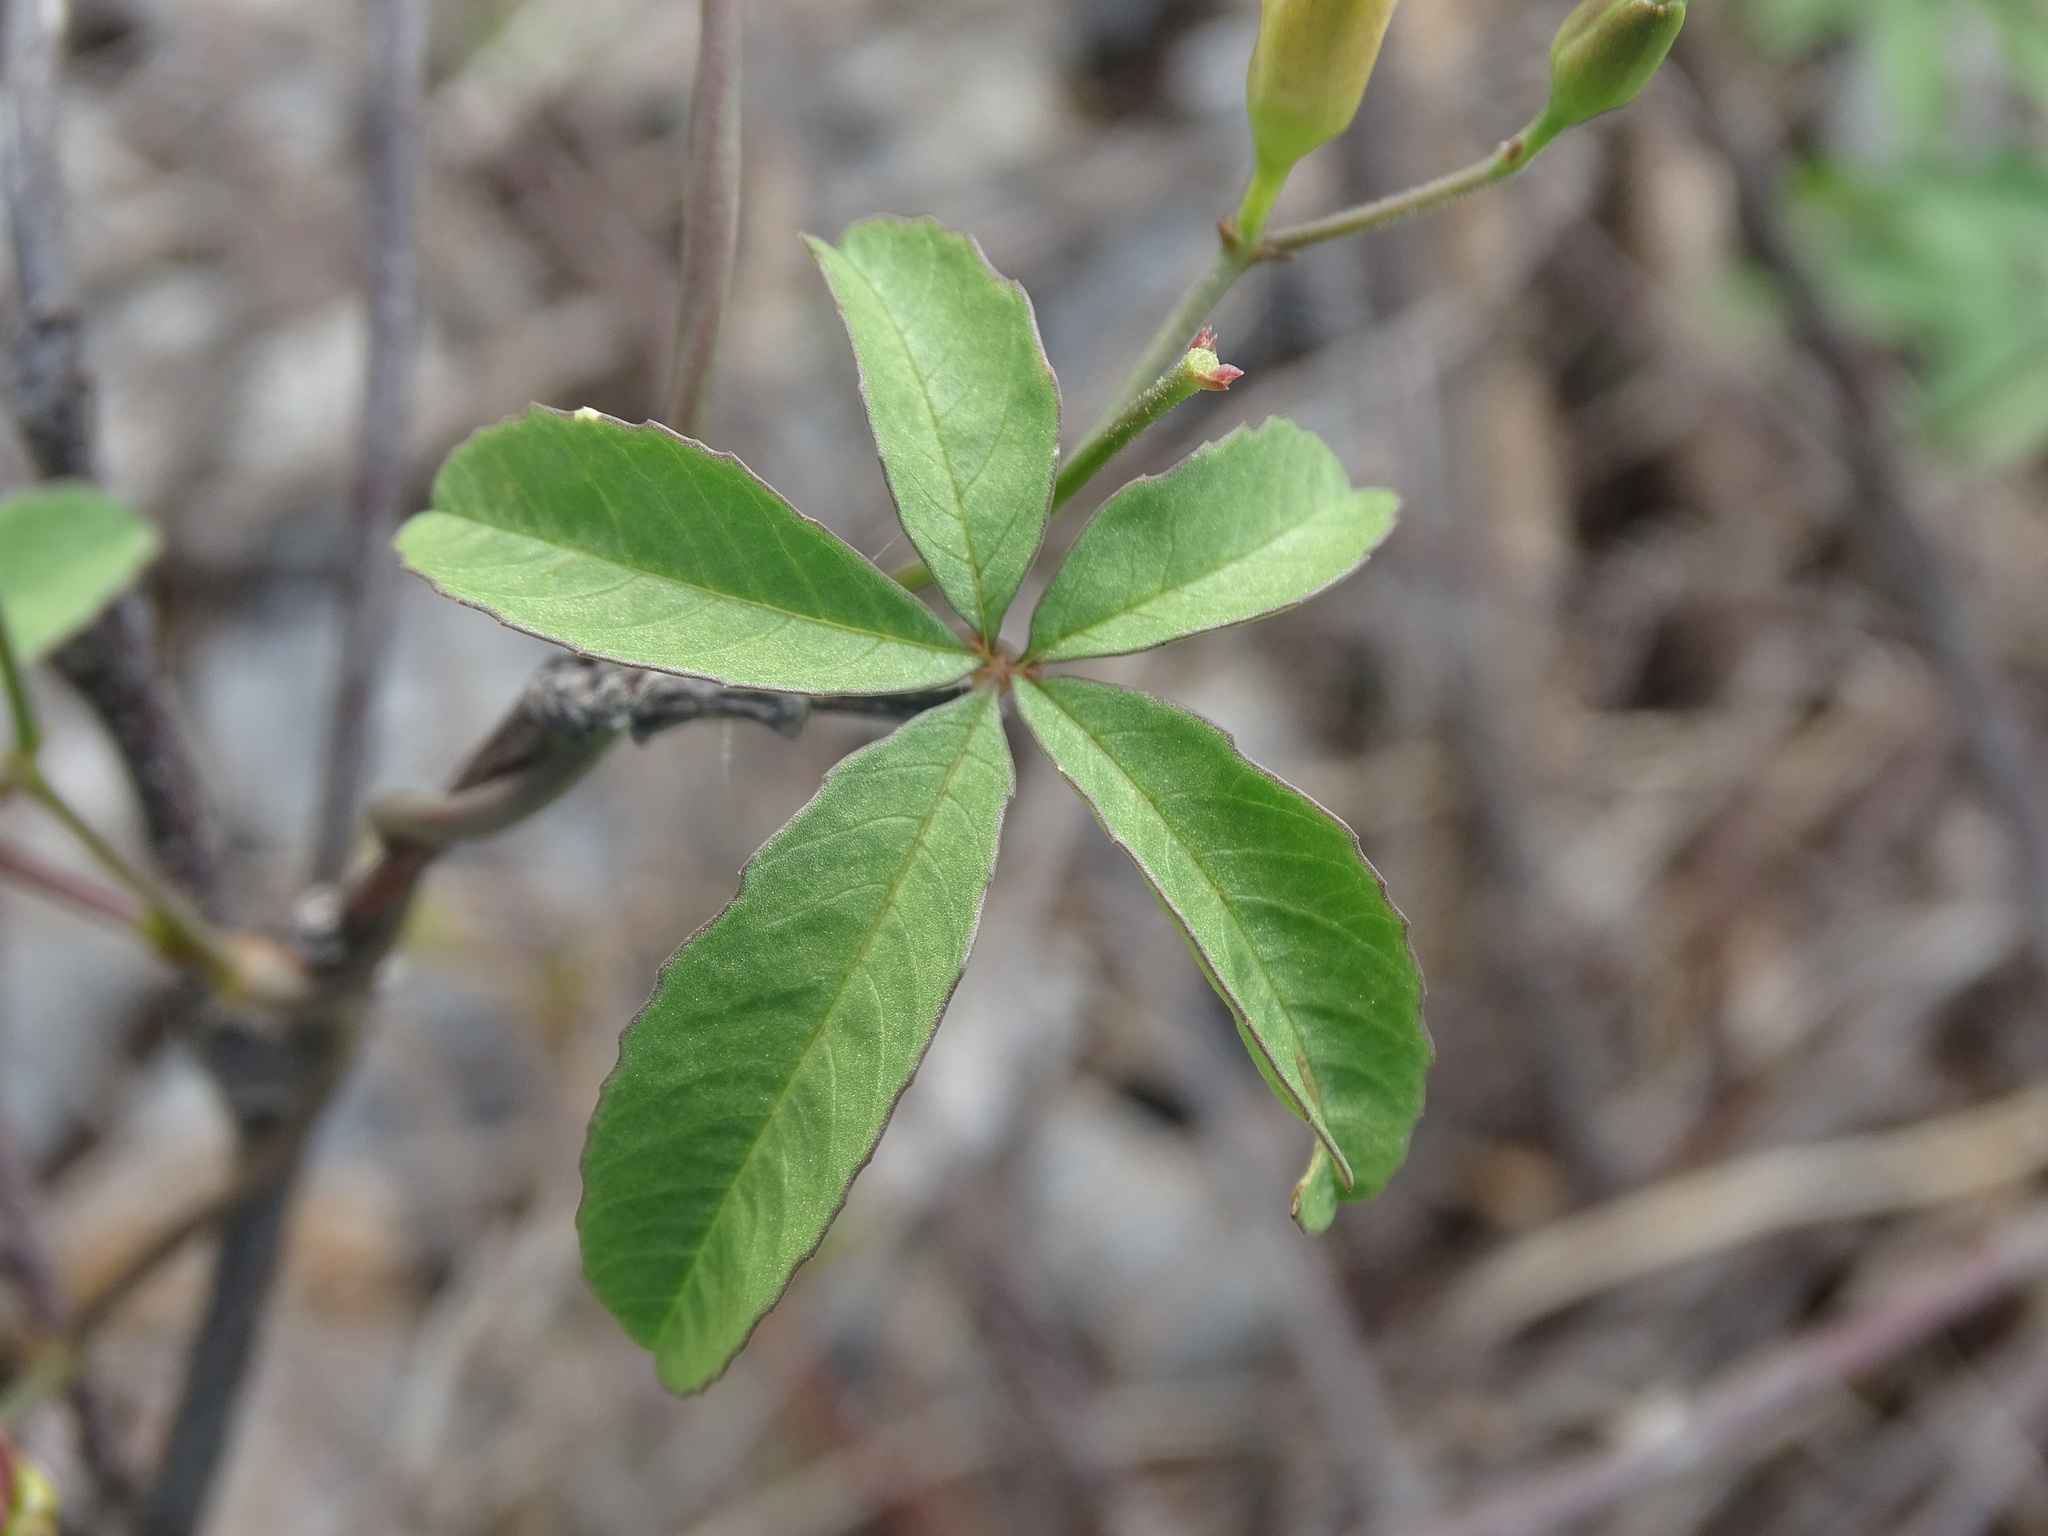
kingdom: Plantae
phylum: Tracheophyta
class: Magnoliopsida
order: Solanales
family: Convolvulaceae
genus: Distimake
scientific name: Distimake quinquefolius
